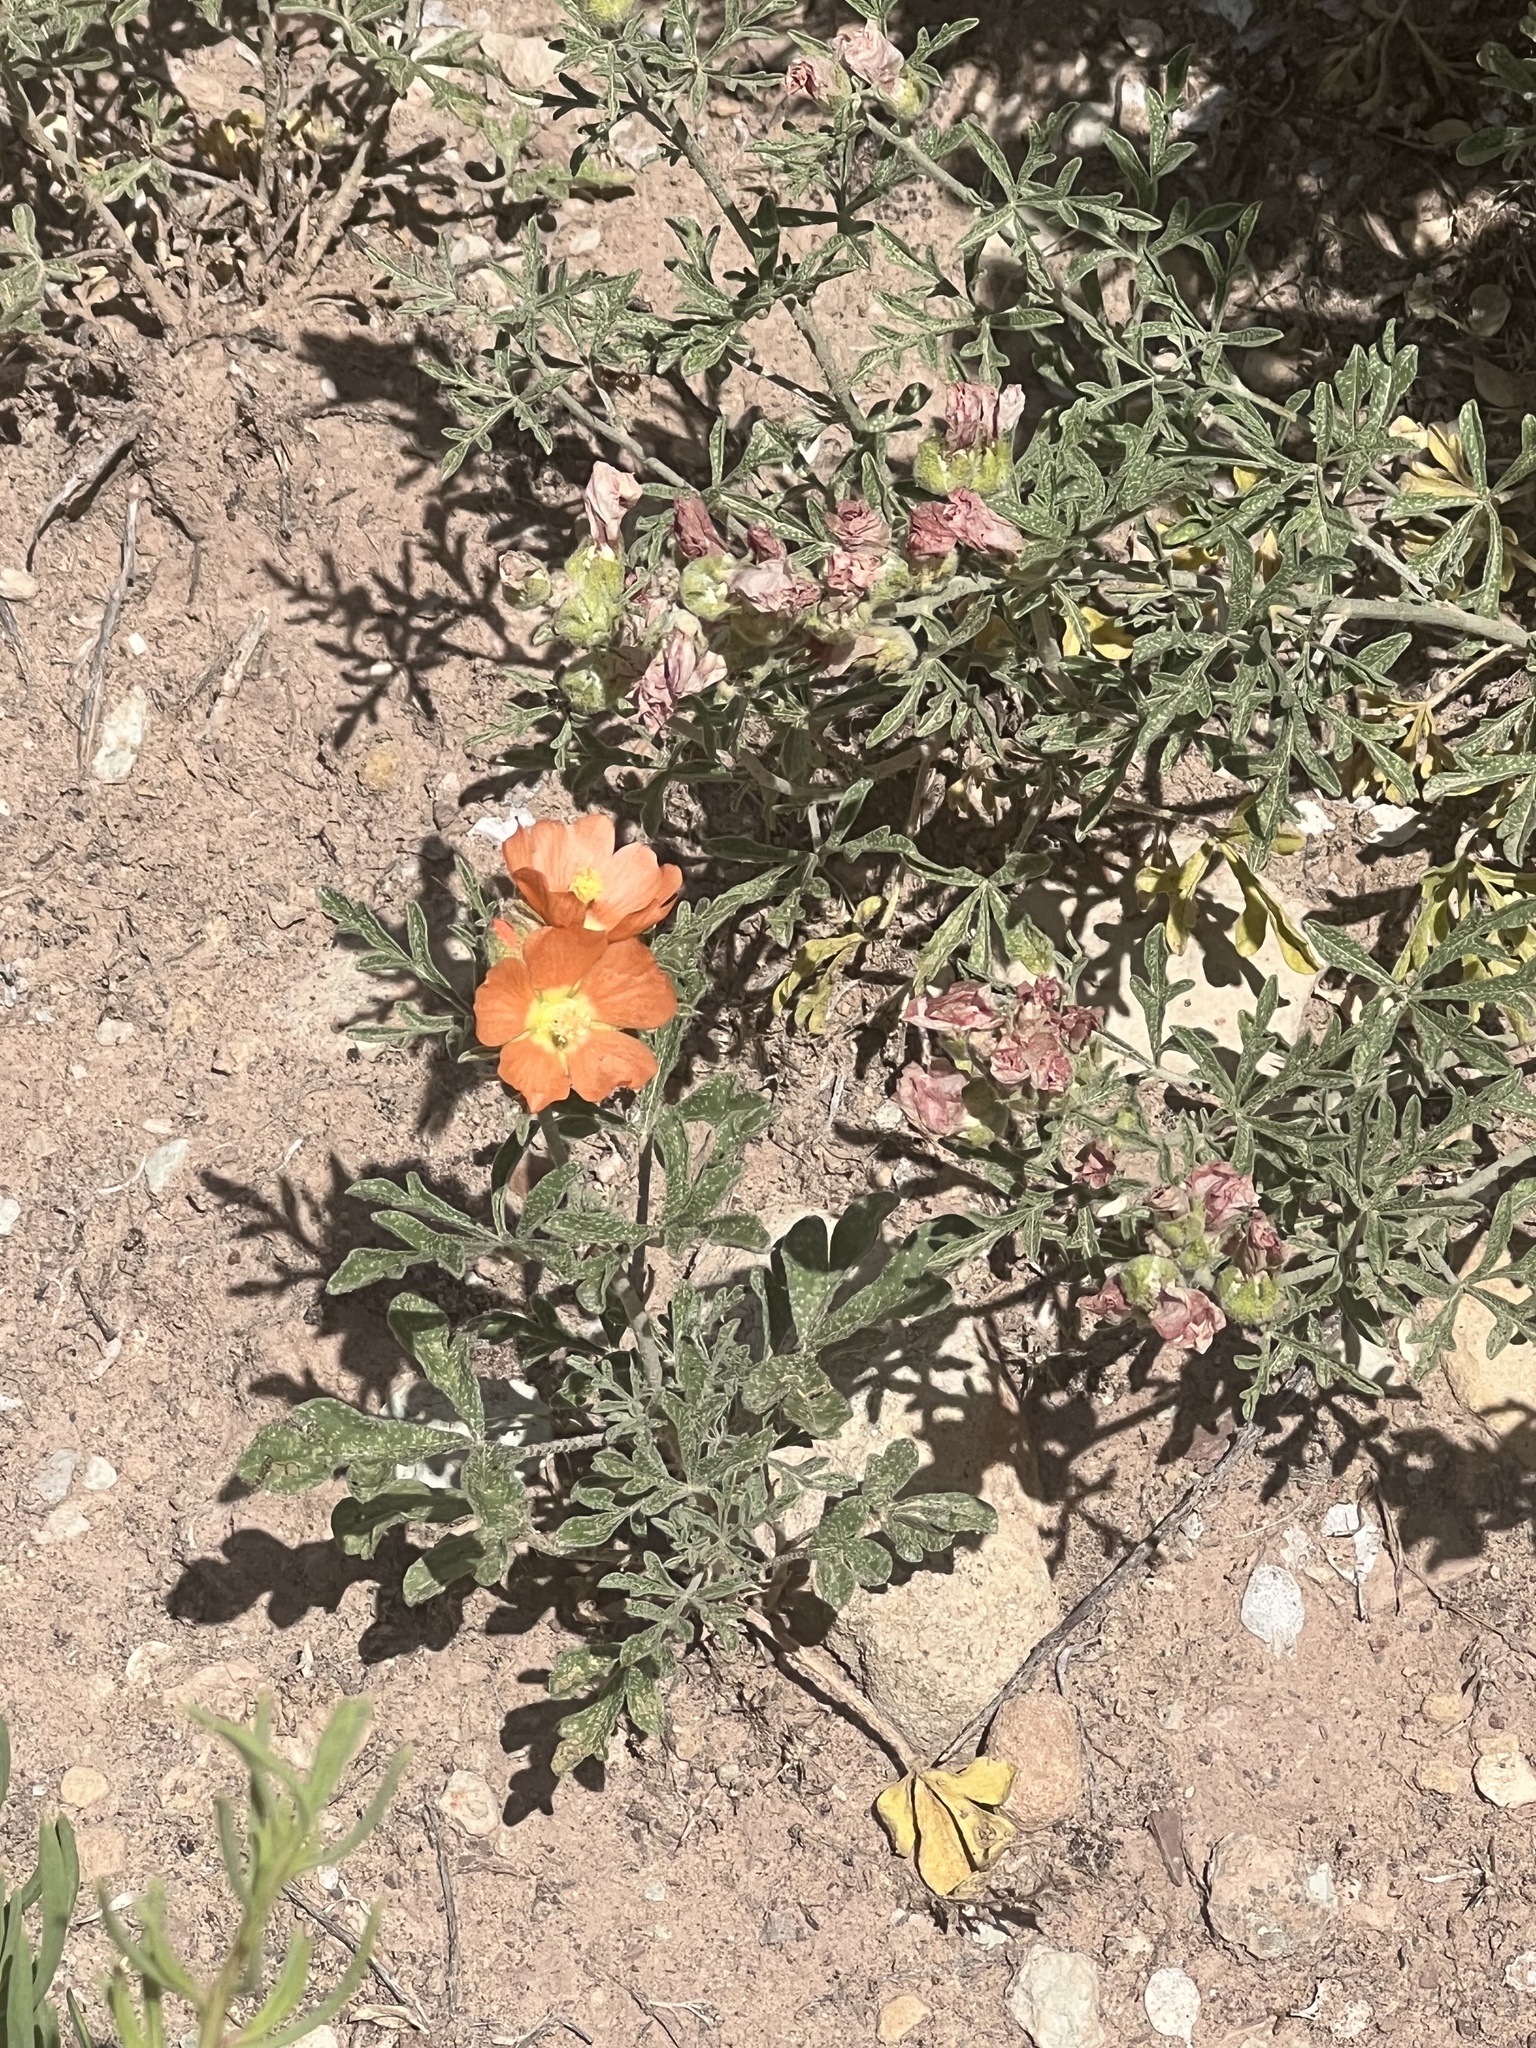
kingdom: Plantae
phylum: Tracheophyta
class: Magnoliopsida
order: Malvales
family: Malvaceae
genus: Sphaeralcea
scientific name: Sphaeralcea coccinea
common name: Moss-rose
